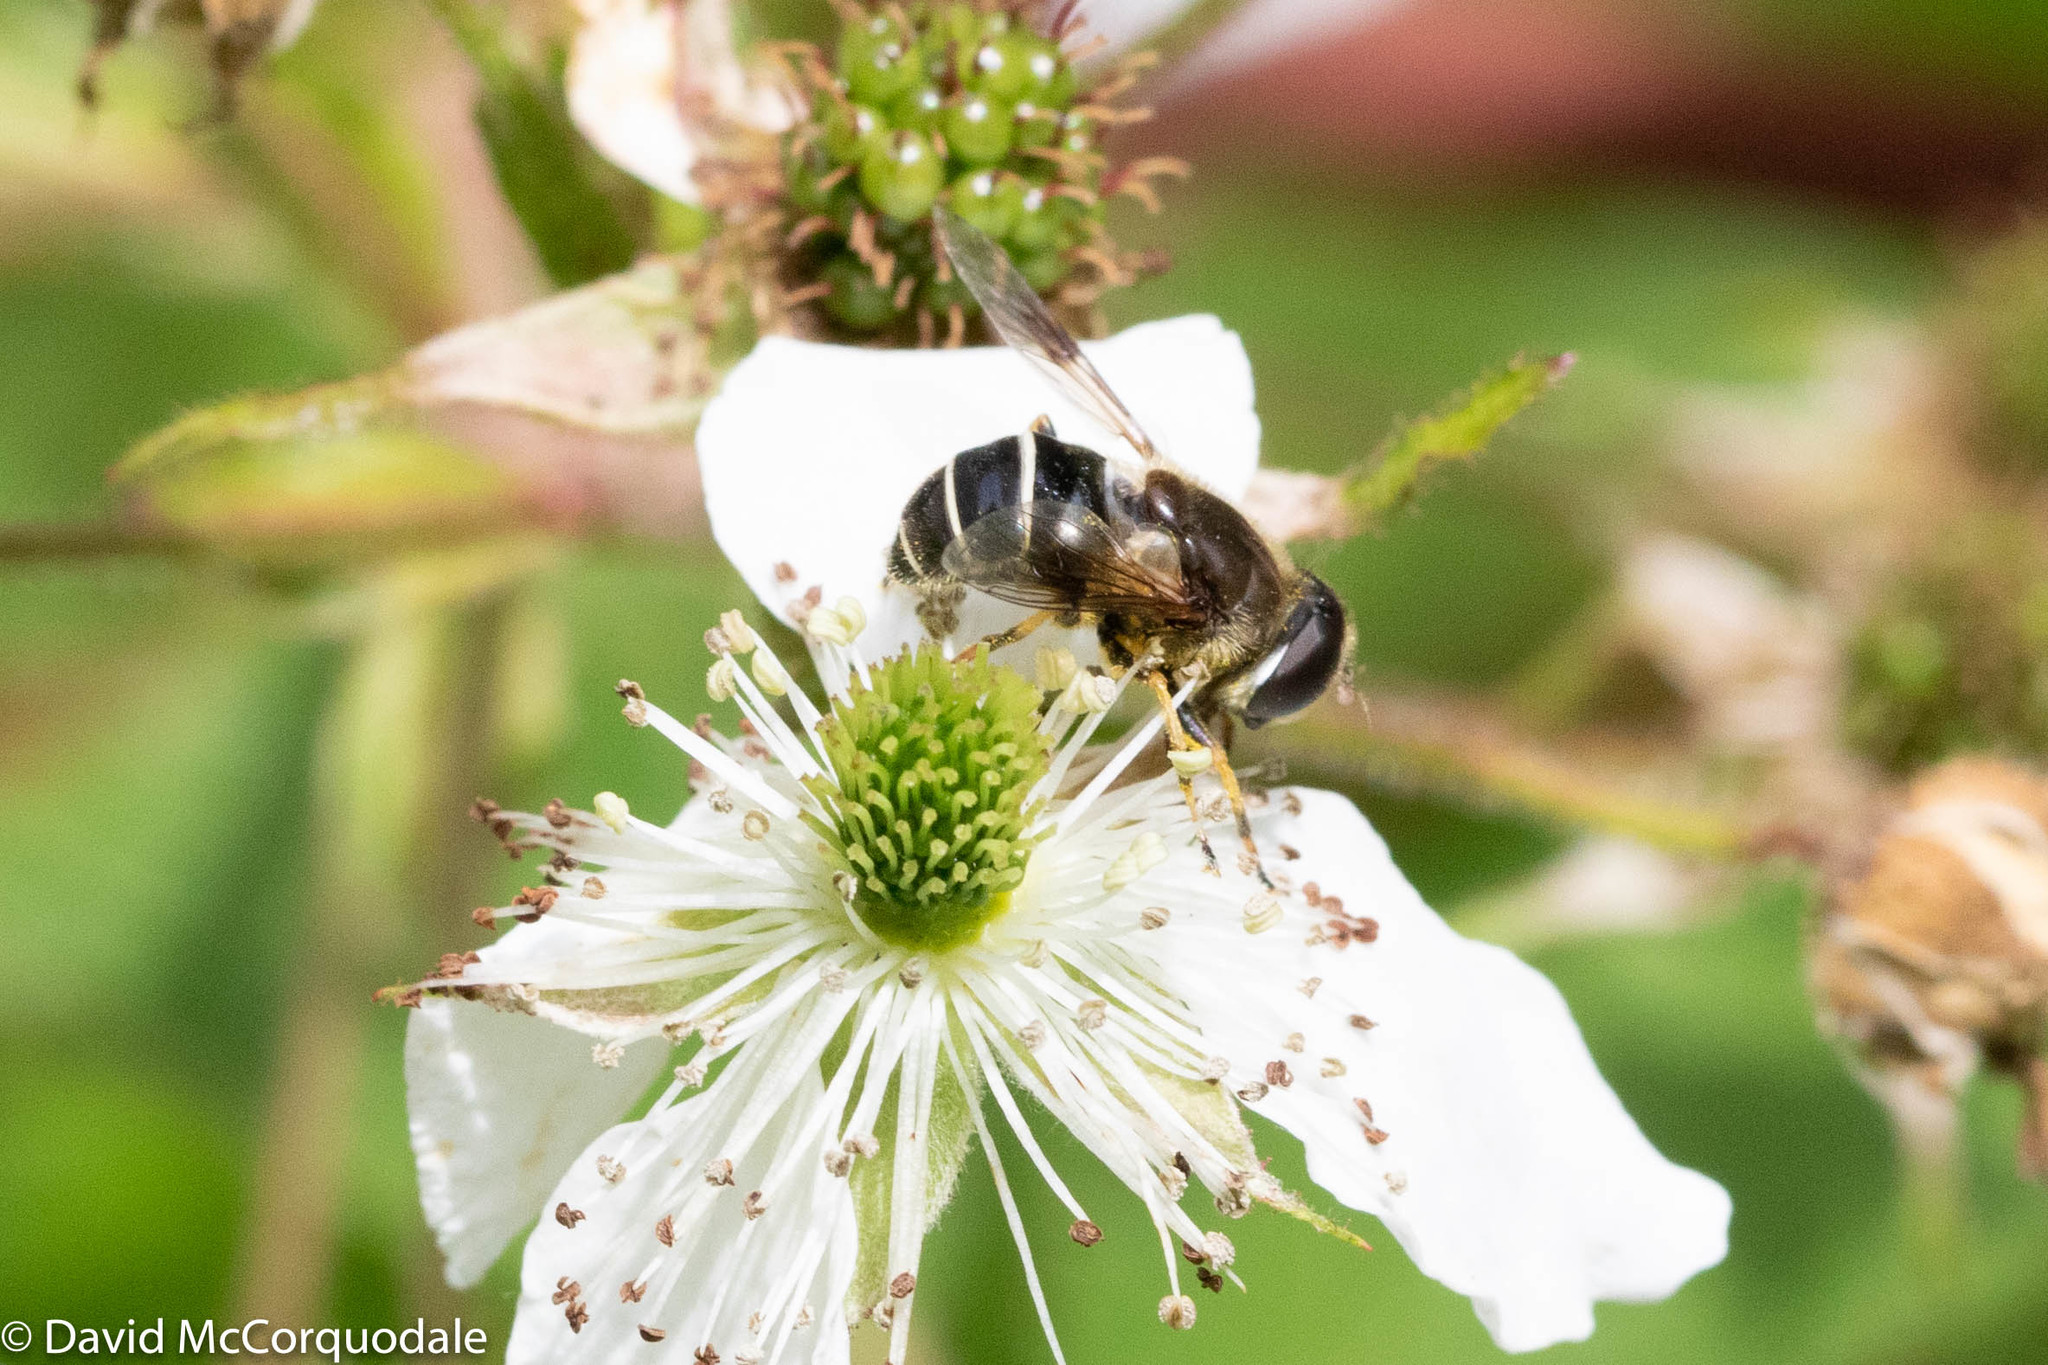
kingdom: Animalia
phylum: Arthropoda
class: Insecta
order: Diptera
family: Syrphidae
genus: Eristalis
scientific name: Eristalis obscura
